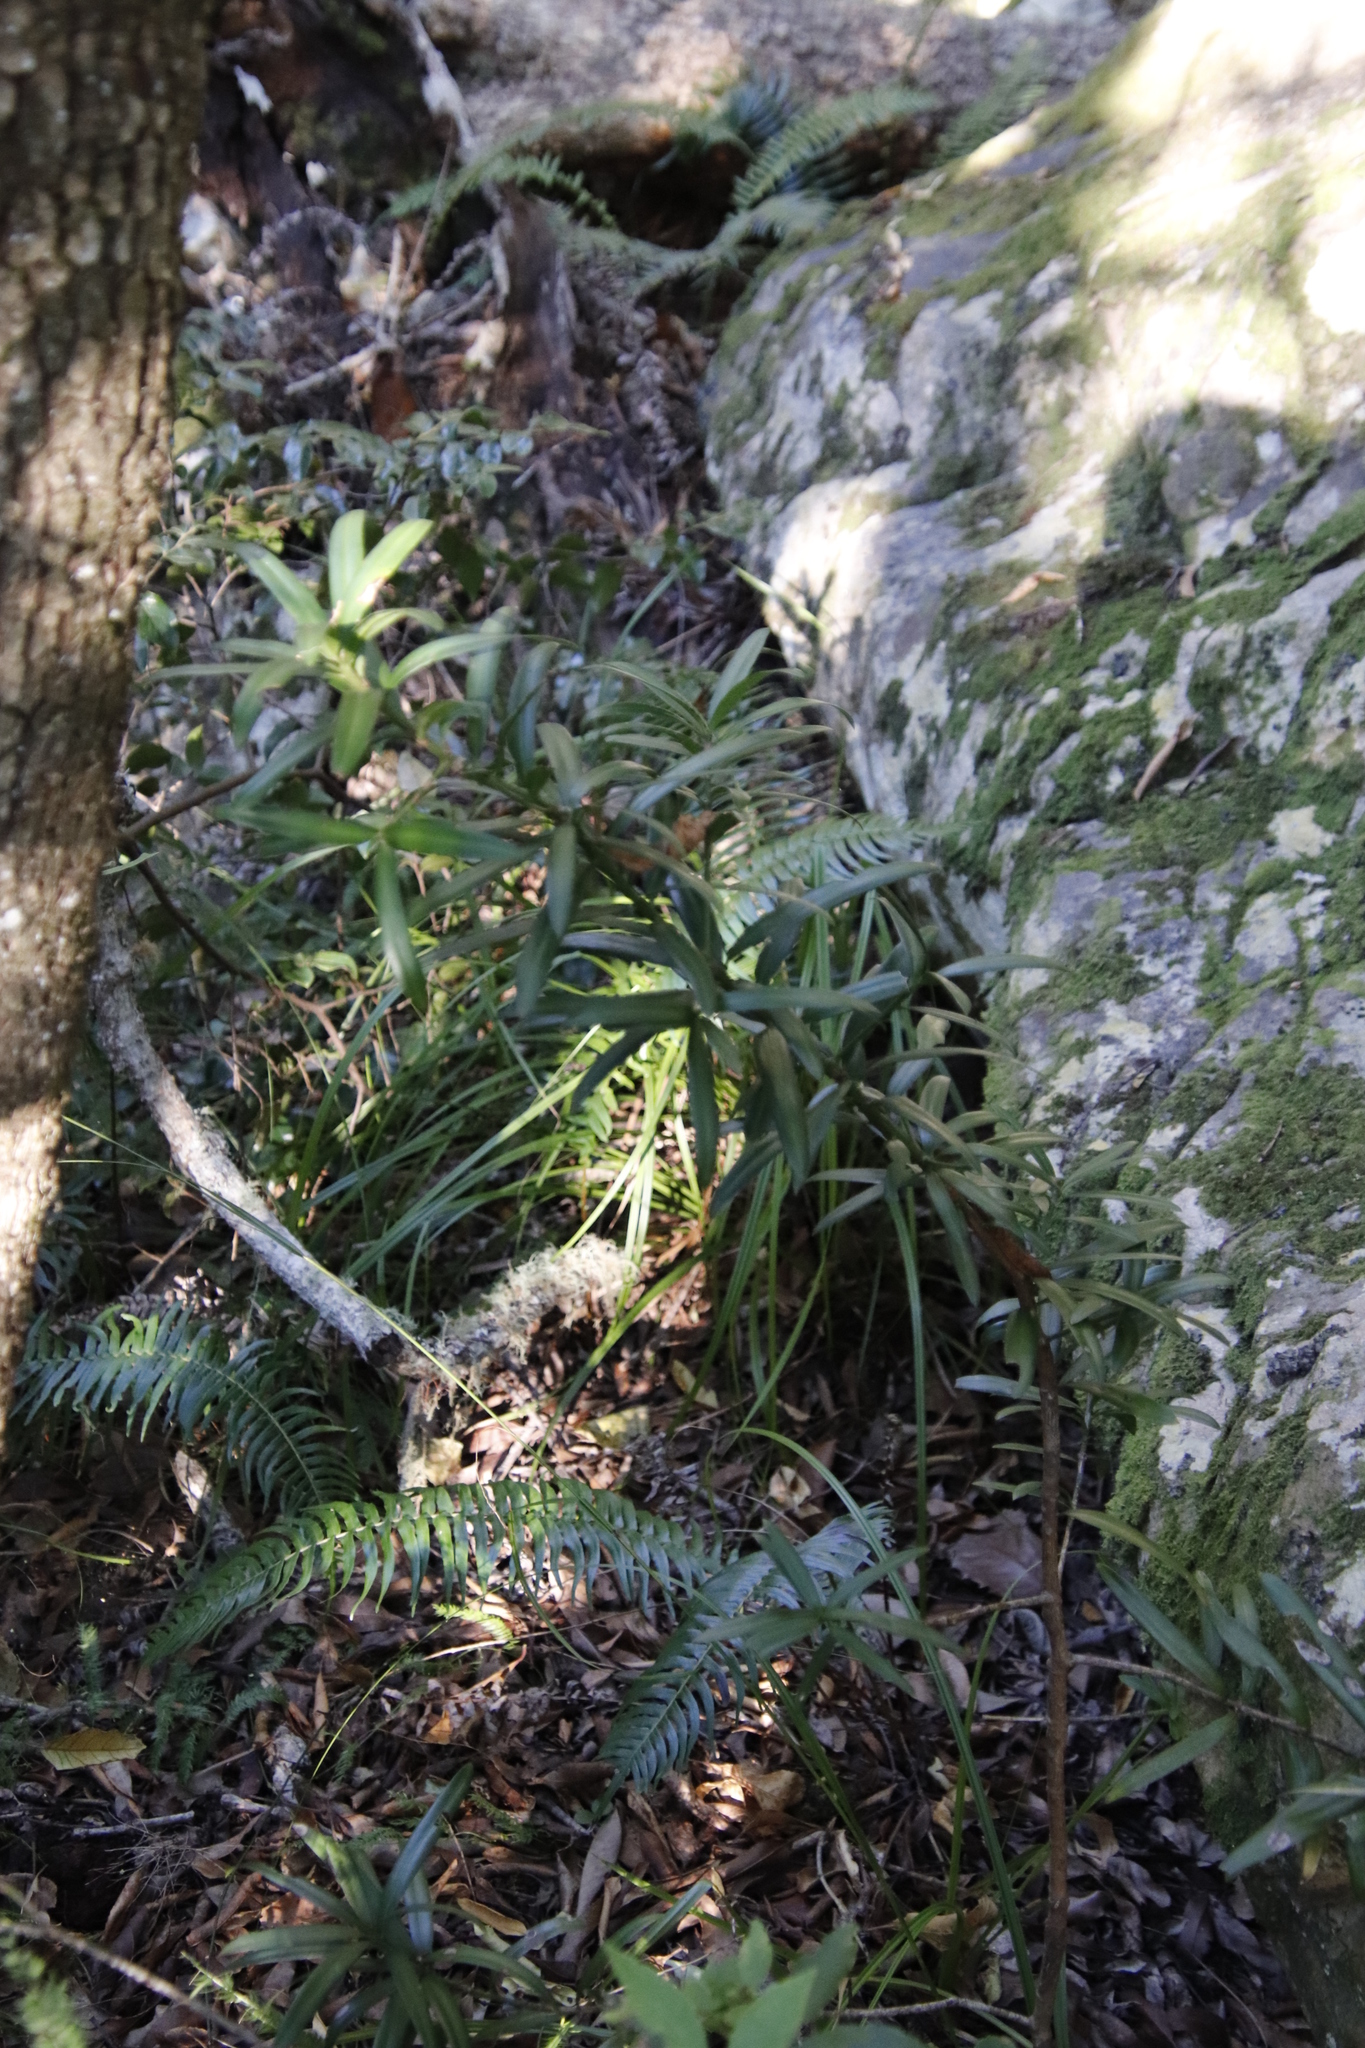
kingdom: Plantae
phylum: Tracheophyta
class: Pinopsida
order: Pinales
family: Podocarpaceae
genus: Podocarpus
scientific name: Podocarpus latifolius
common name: True yellowwood
